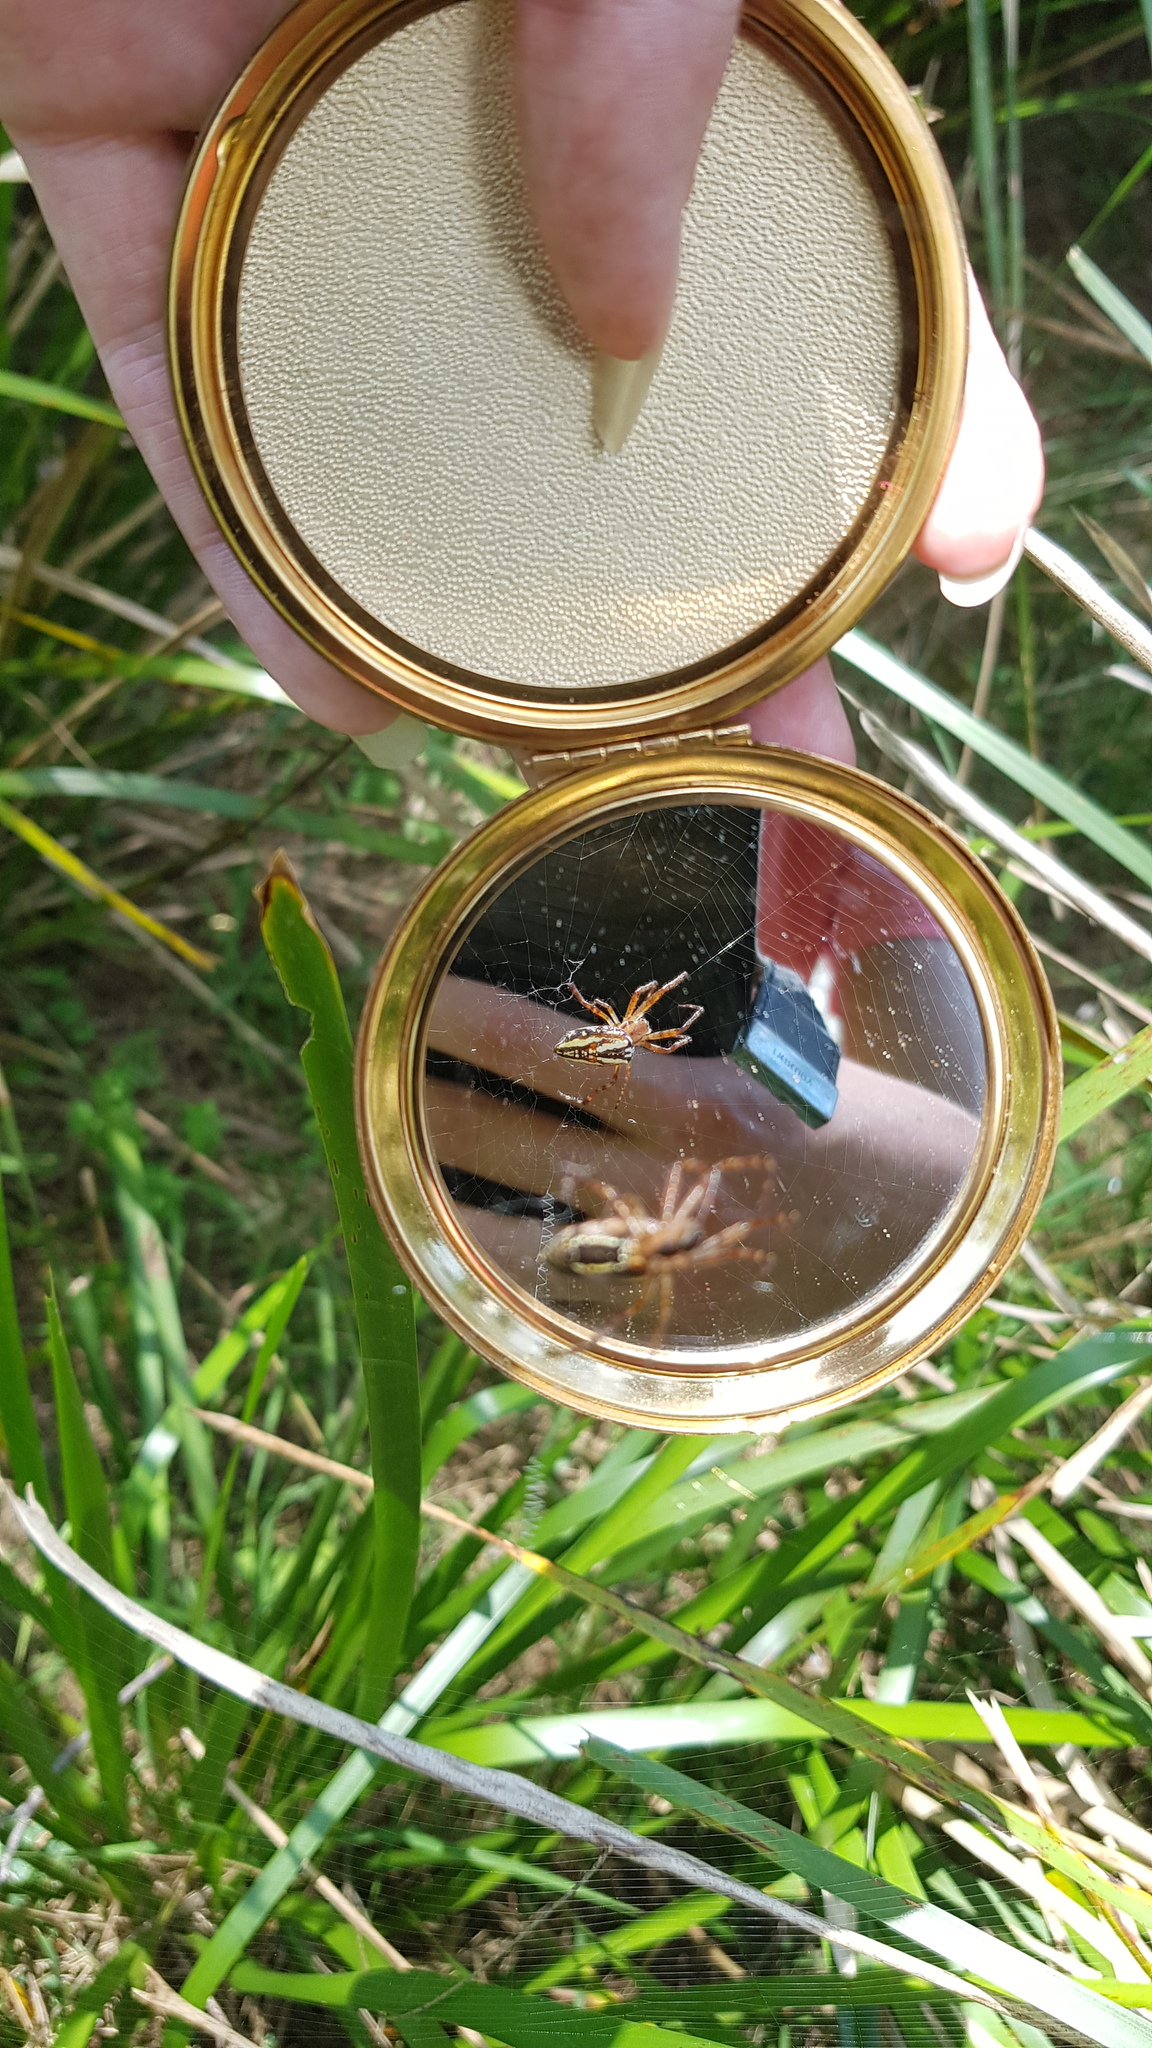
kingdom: Animalia
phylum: Arthropoda
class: Arachnida
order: Araneae
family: Araneidae
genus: Plebs
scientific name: Plebs bradleyi
